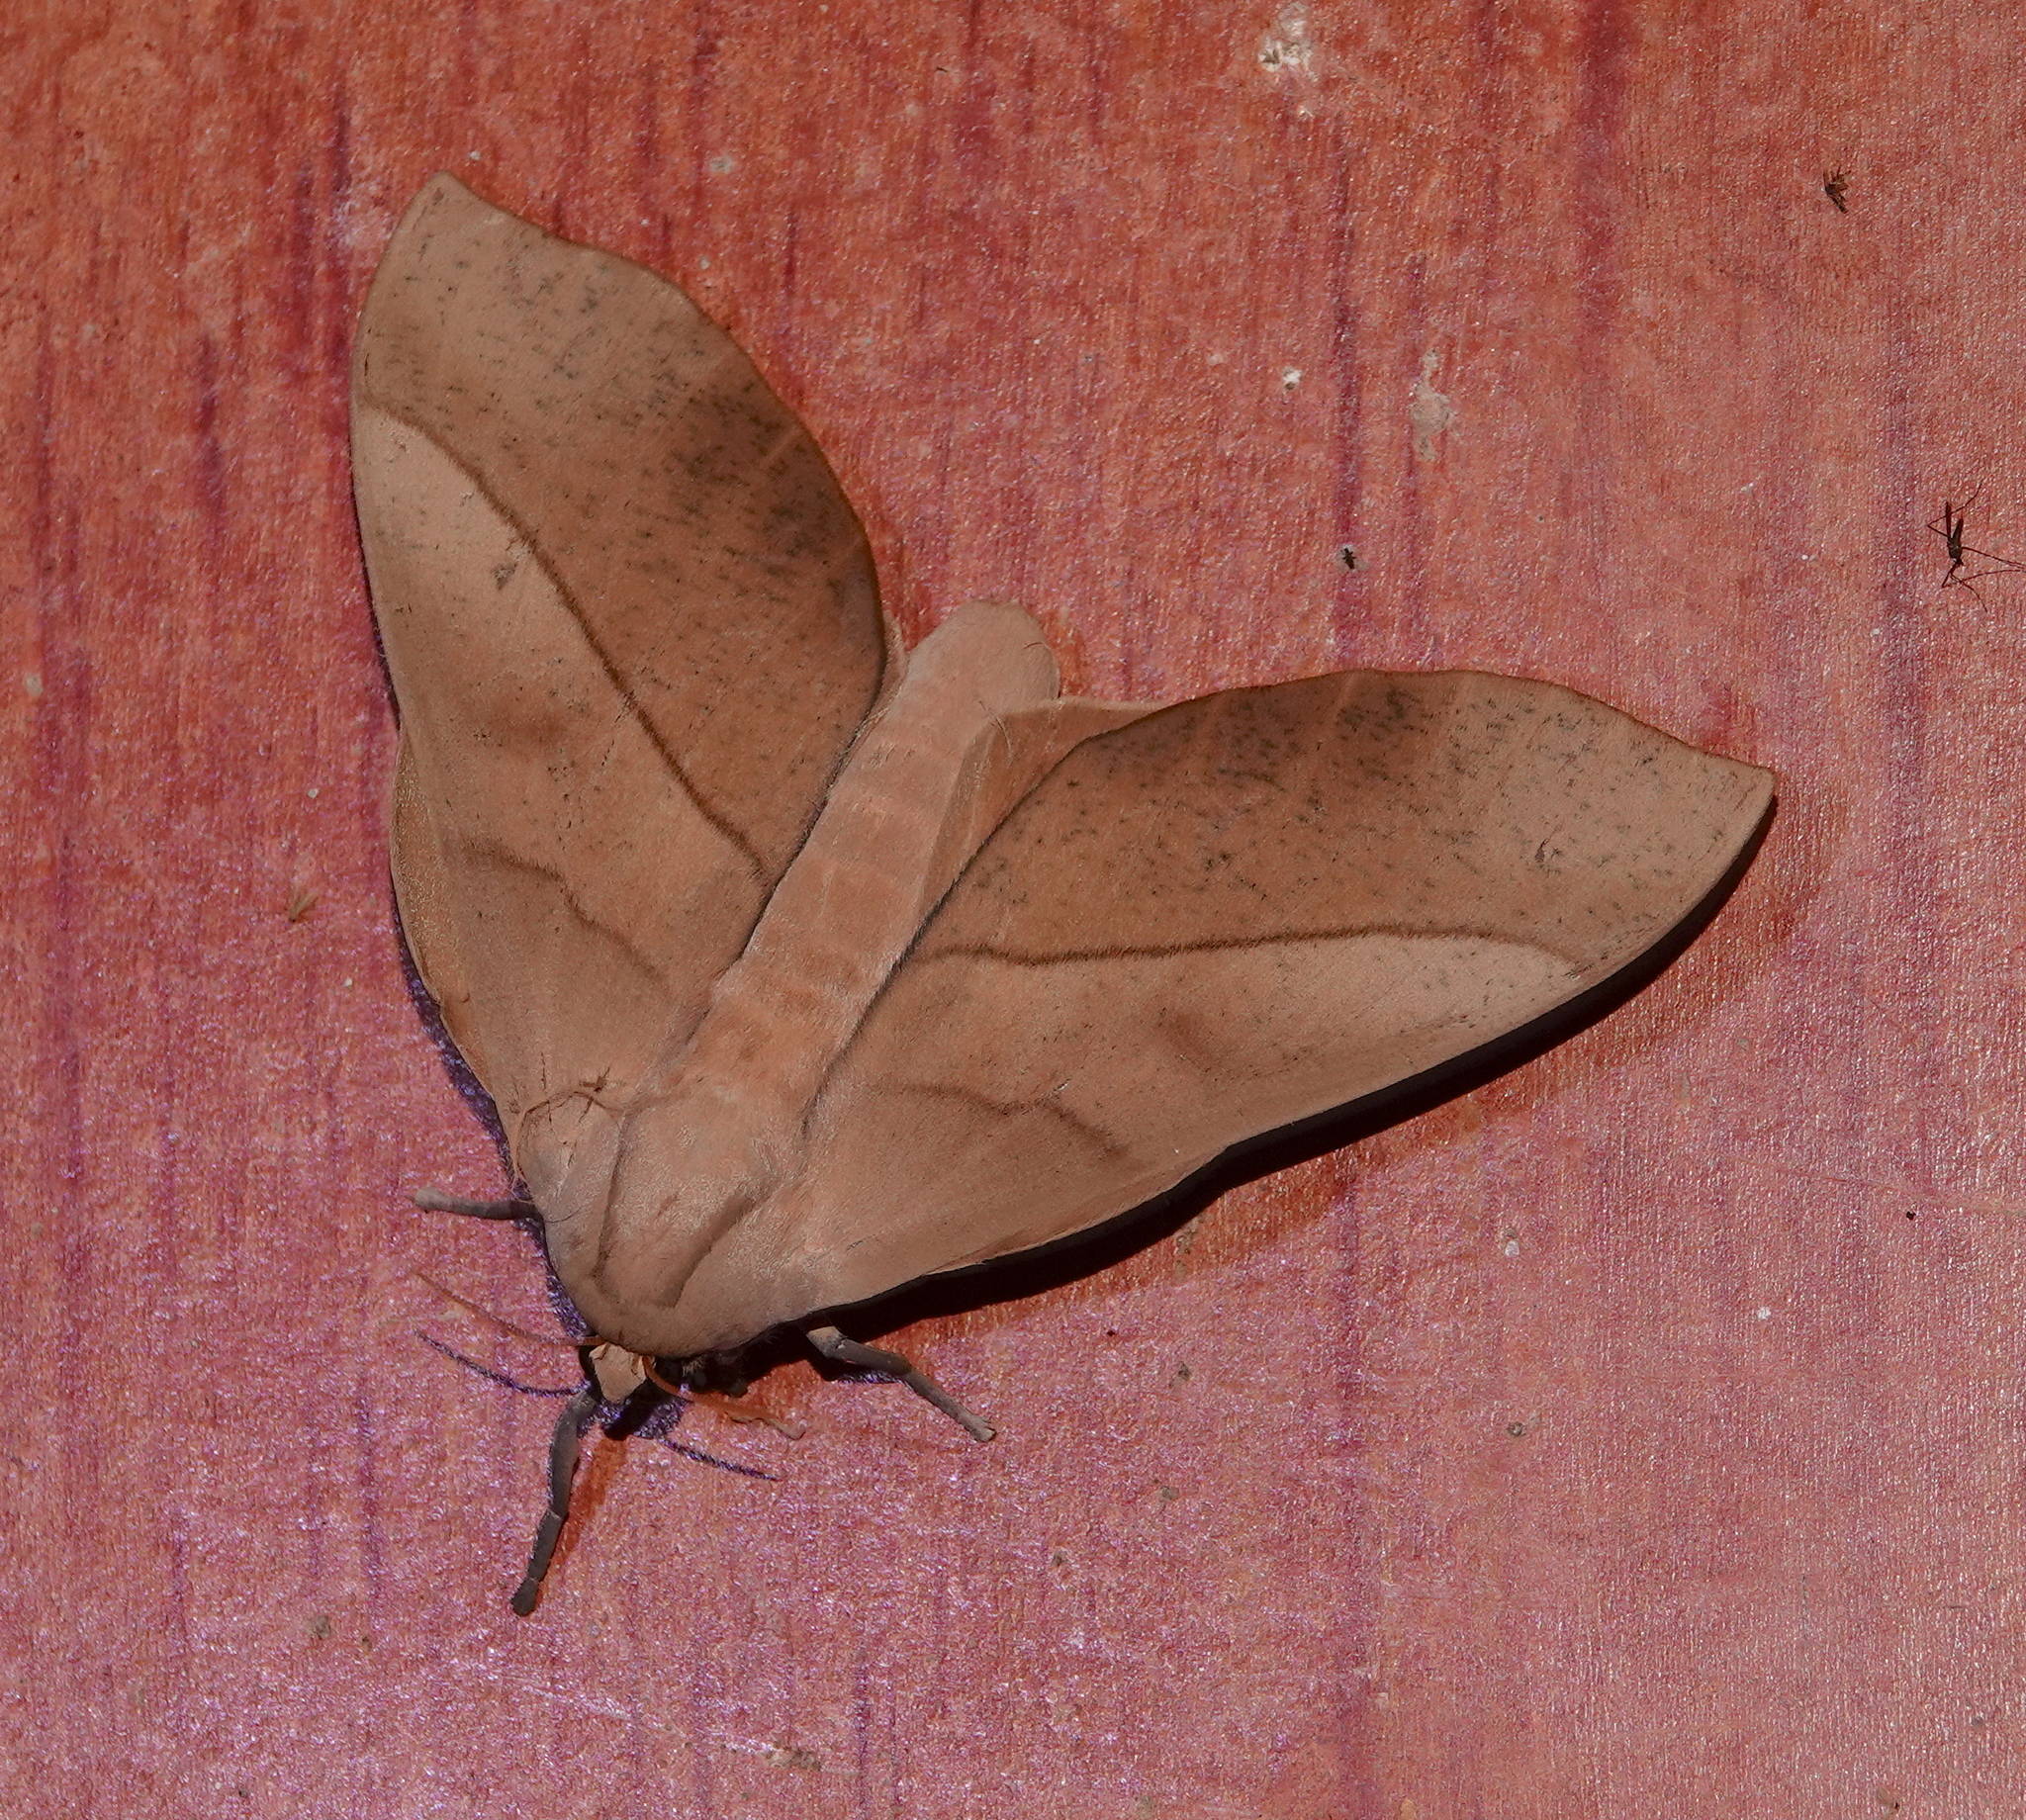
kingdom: Animalia
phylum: Arthropoda
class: Insecta
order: Lepidoptera
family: Saturniidae
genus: Syssphinx
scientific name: Syssphinx molina
